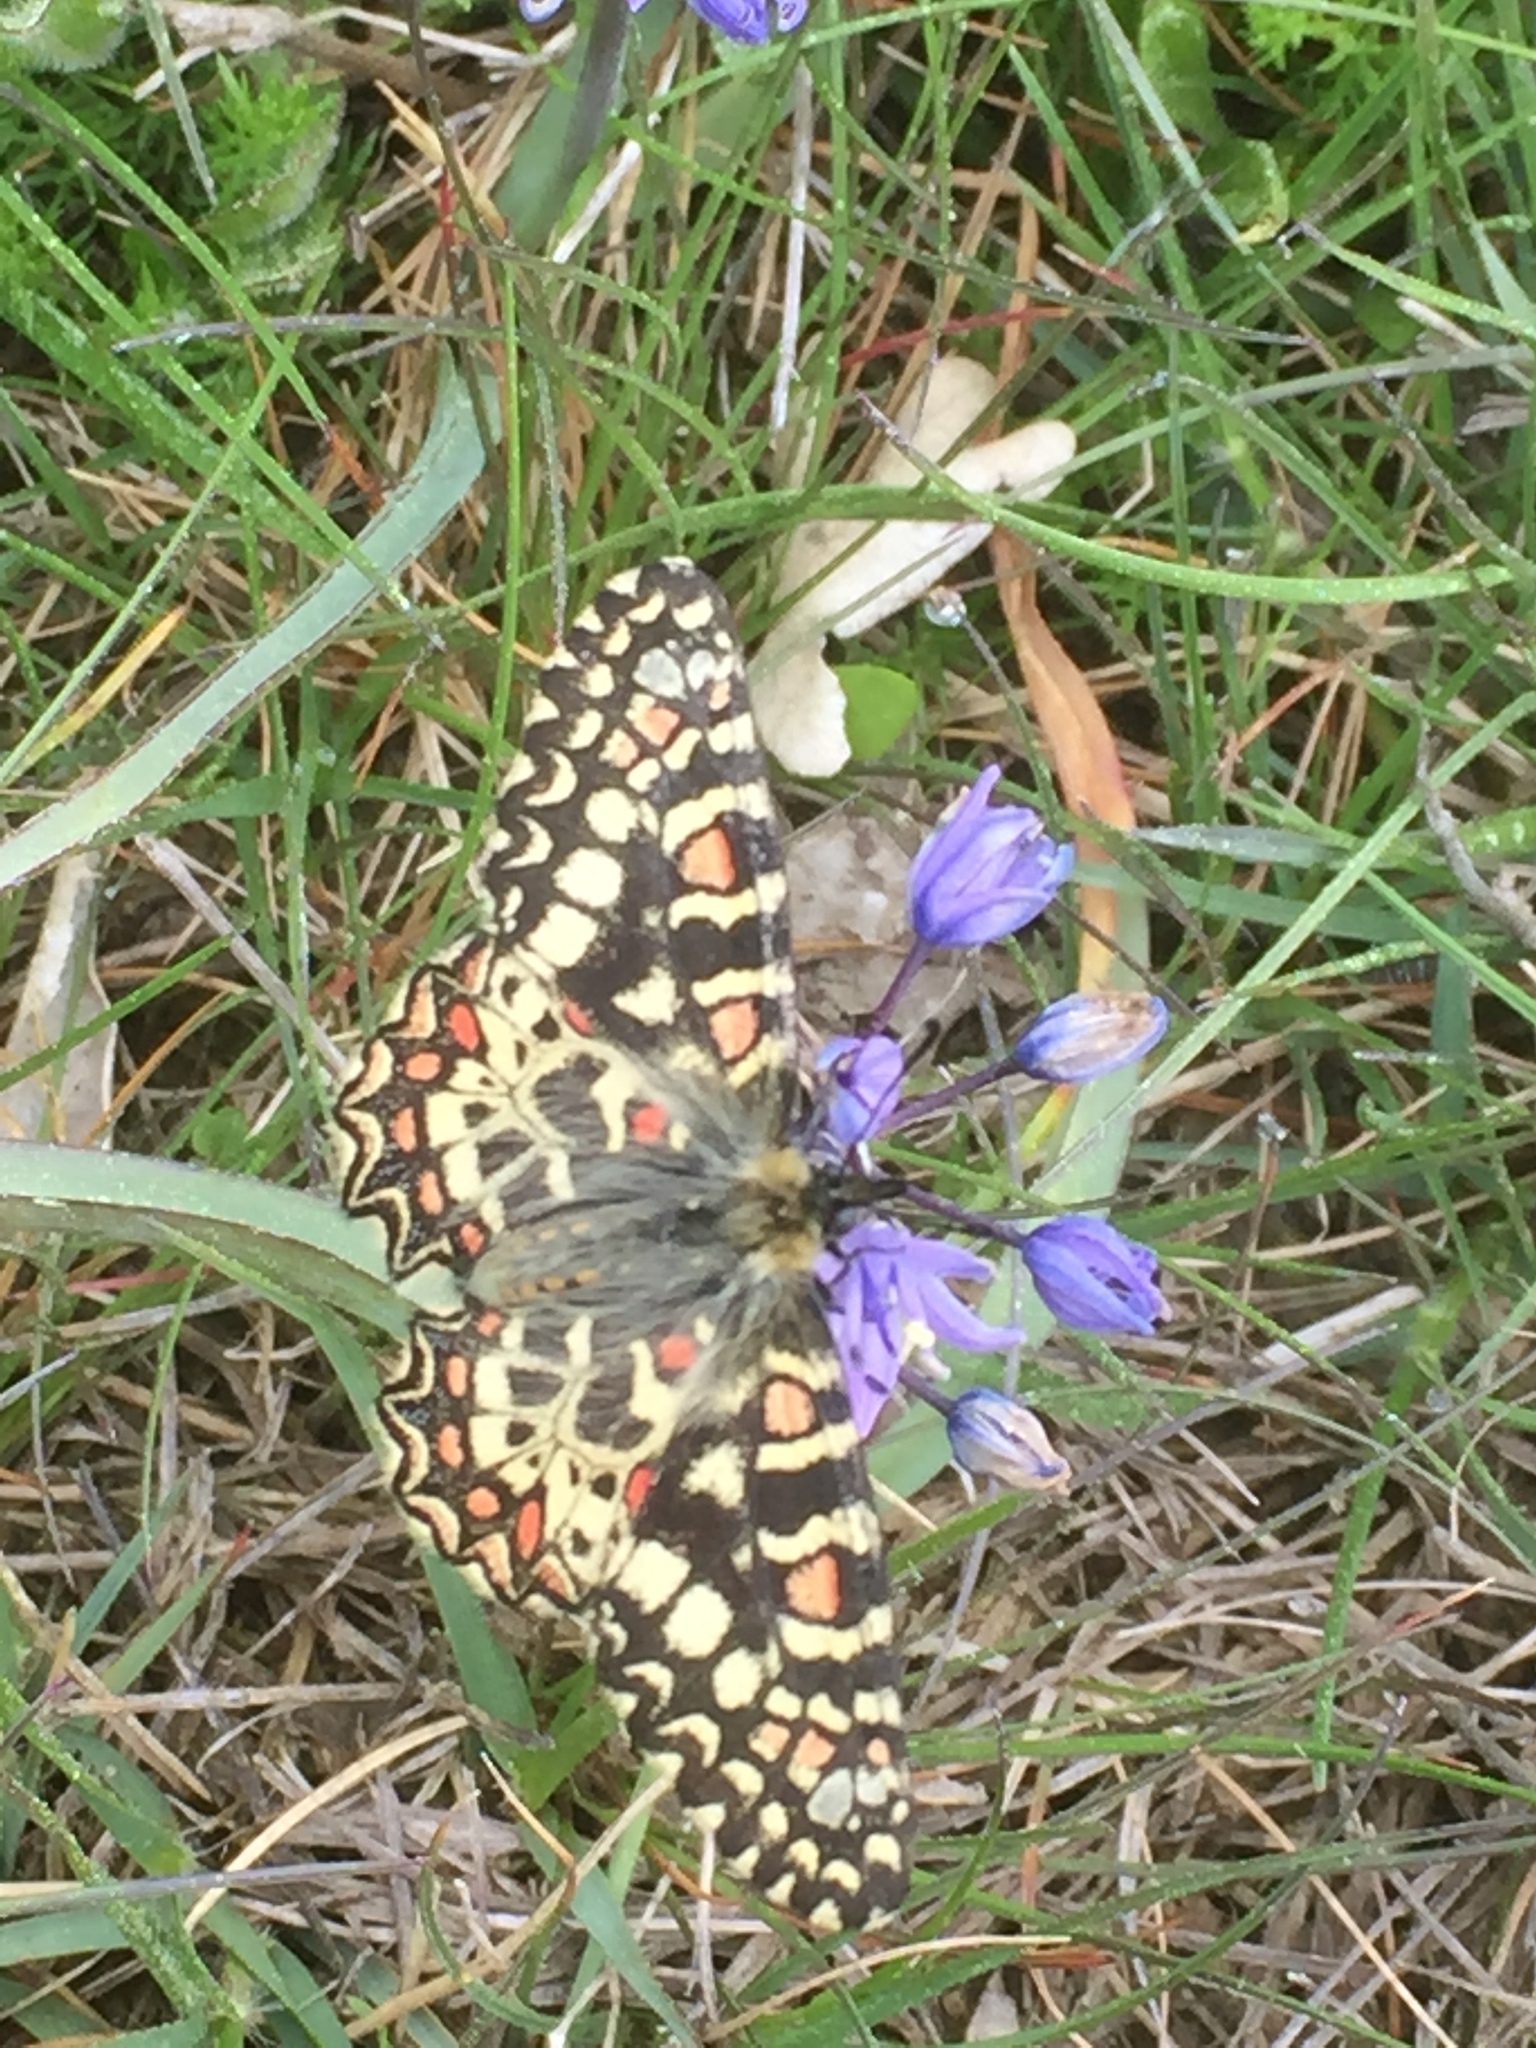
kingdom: Animalia
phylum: Arthropoda
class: Insecta
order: Lepidoptera
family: Papilionidae
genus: Zerynthia
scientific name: Zerynthia rumina
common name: Spanish festoon
